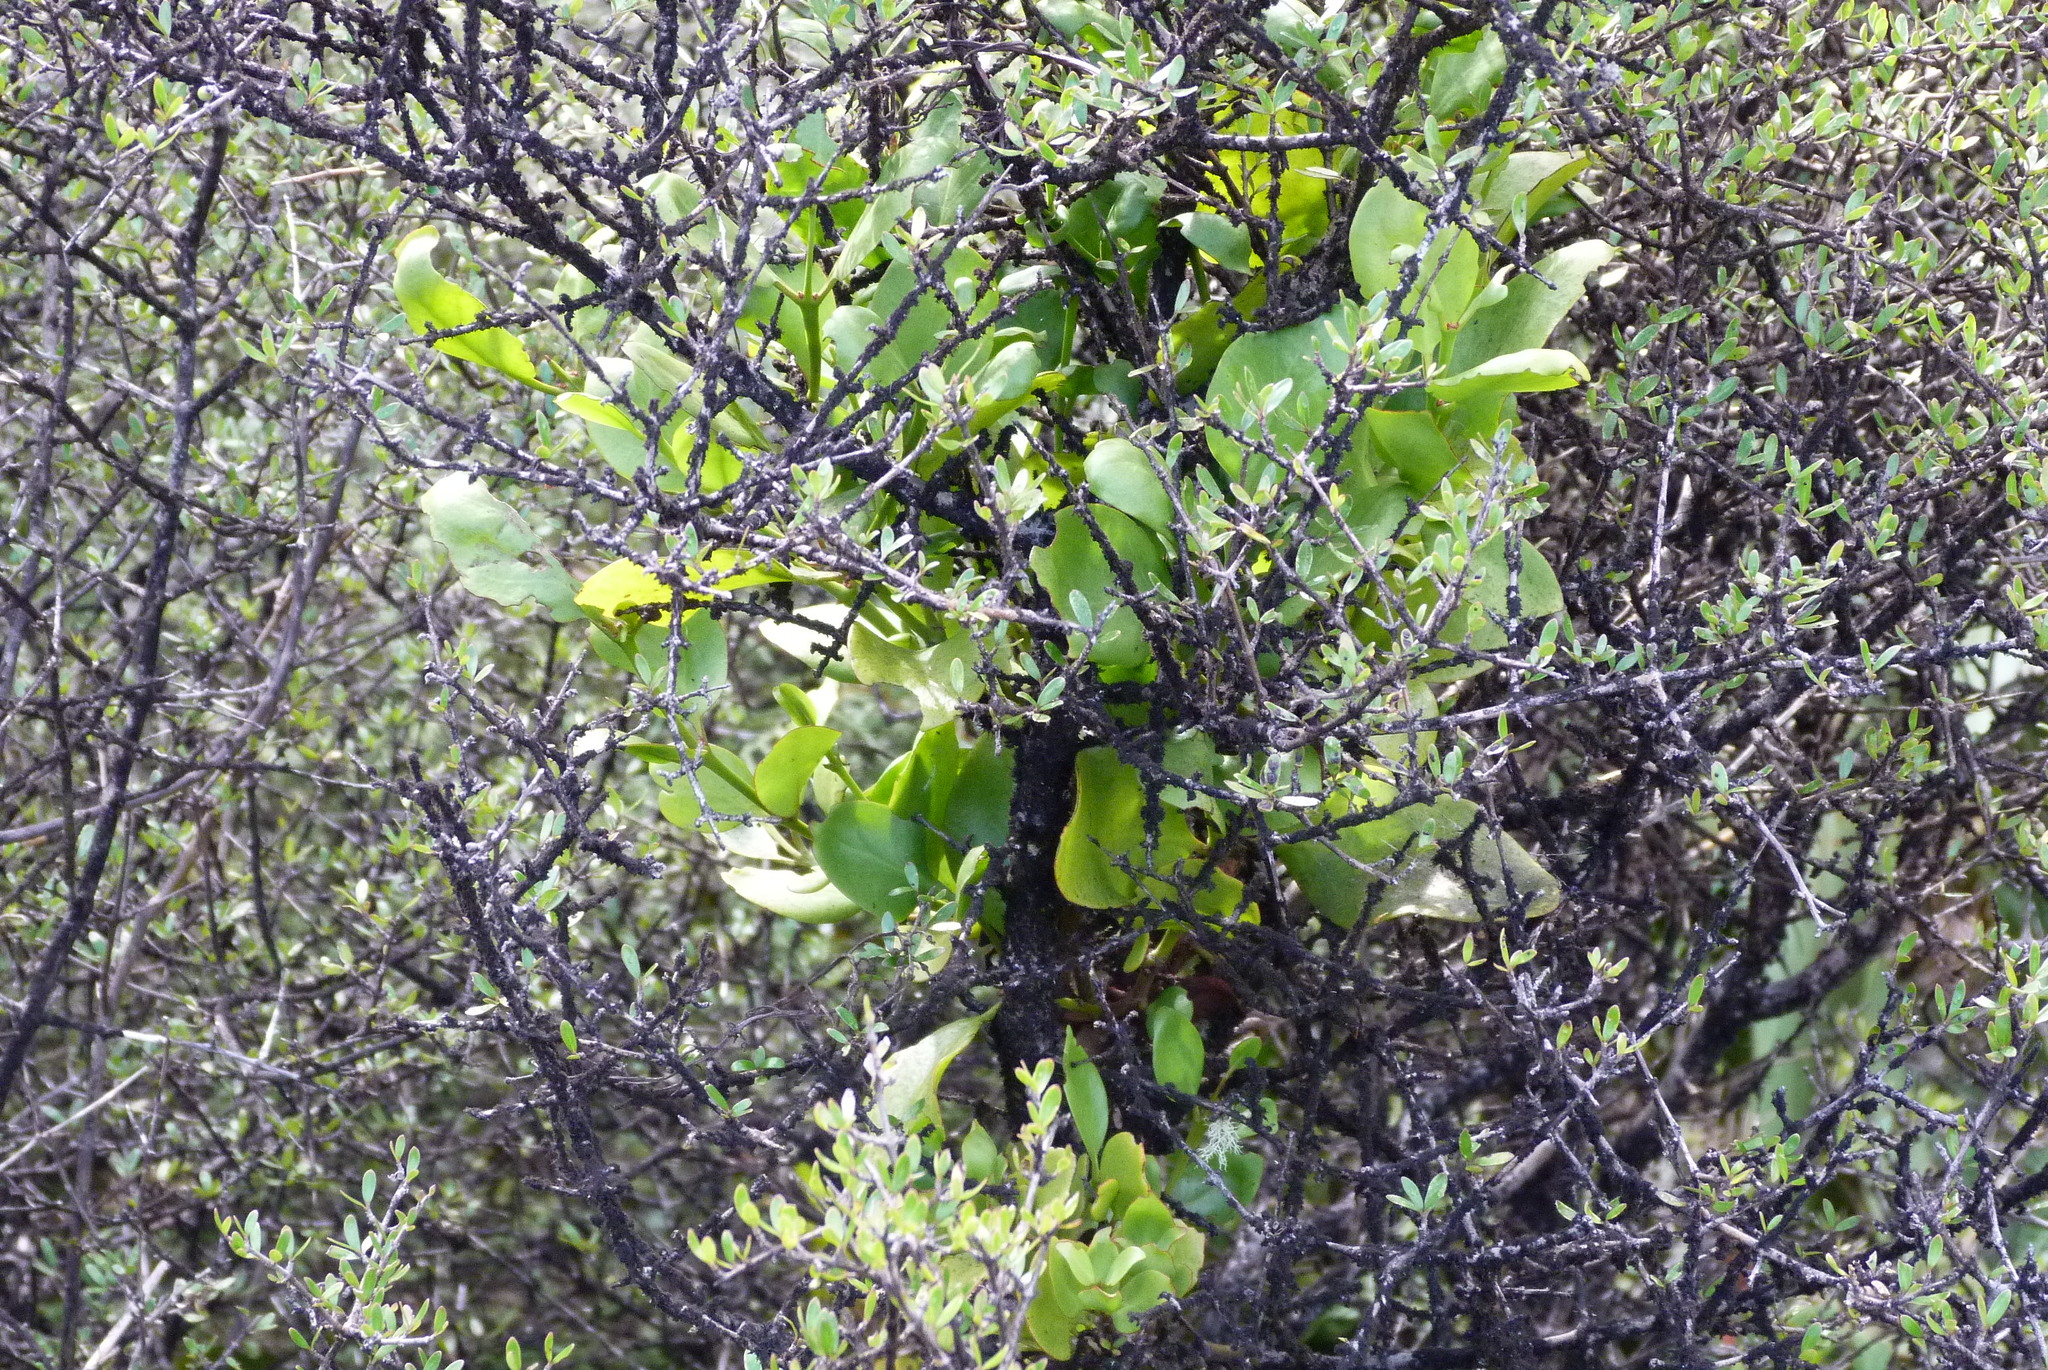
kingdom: Plantae
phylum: Tracheophyta
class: Magnoliopsida
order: Santalales
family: Loranthaceae
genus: Ileostylus
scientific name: Ileostylus micranthus
